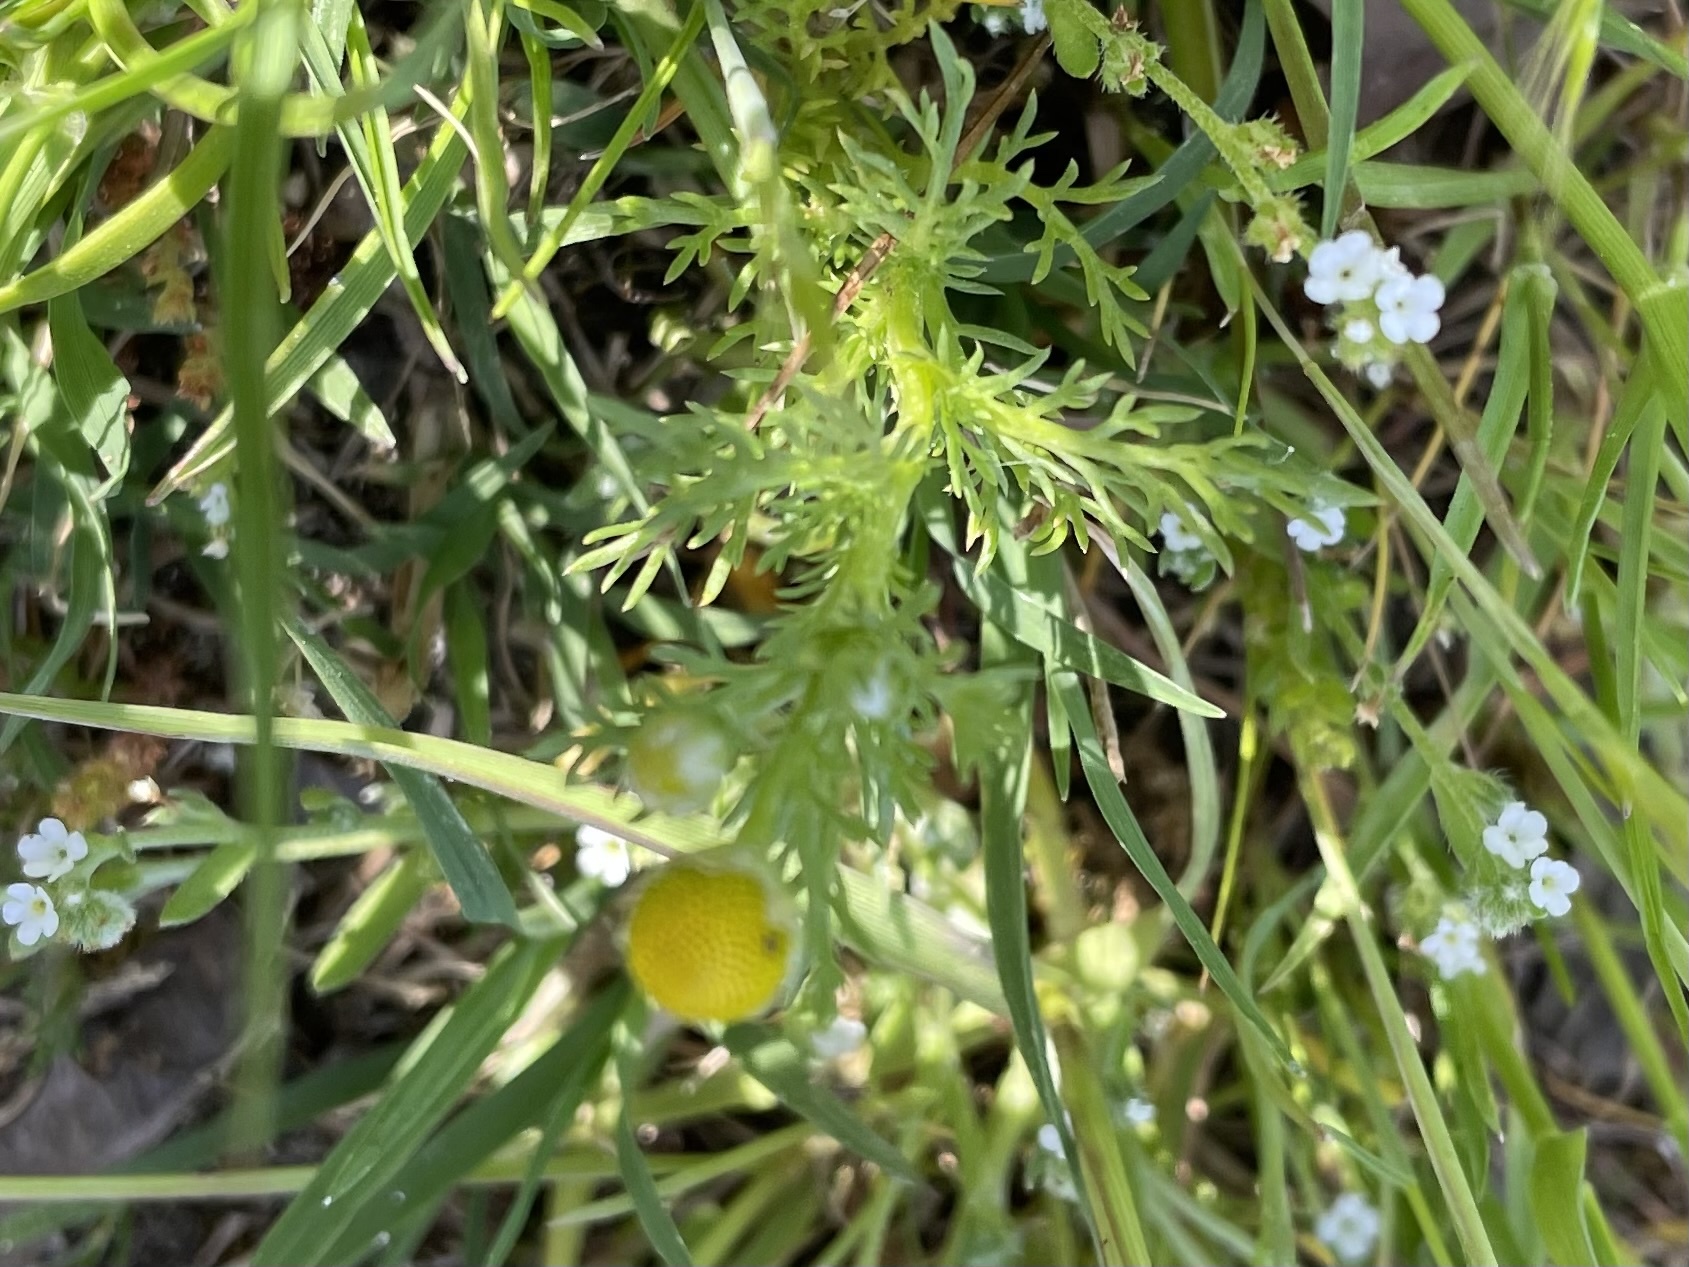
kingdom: Plantae
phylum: Tracheophyta
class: Magnoliopsida
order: Asterales
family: Asteraceae
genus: Matricaria
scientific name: Matricaria discoidea
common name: Disc mayweed
